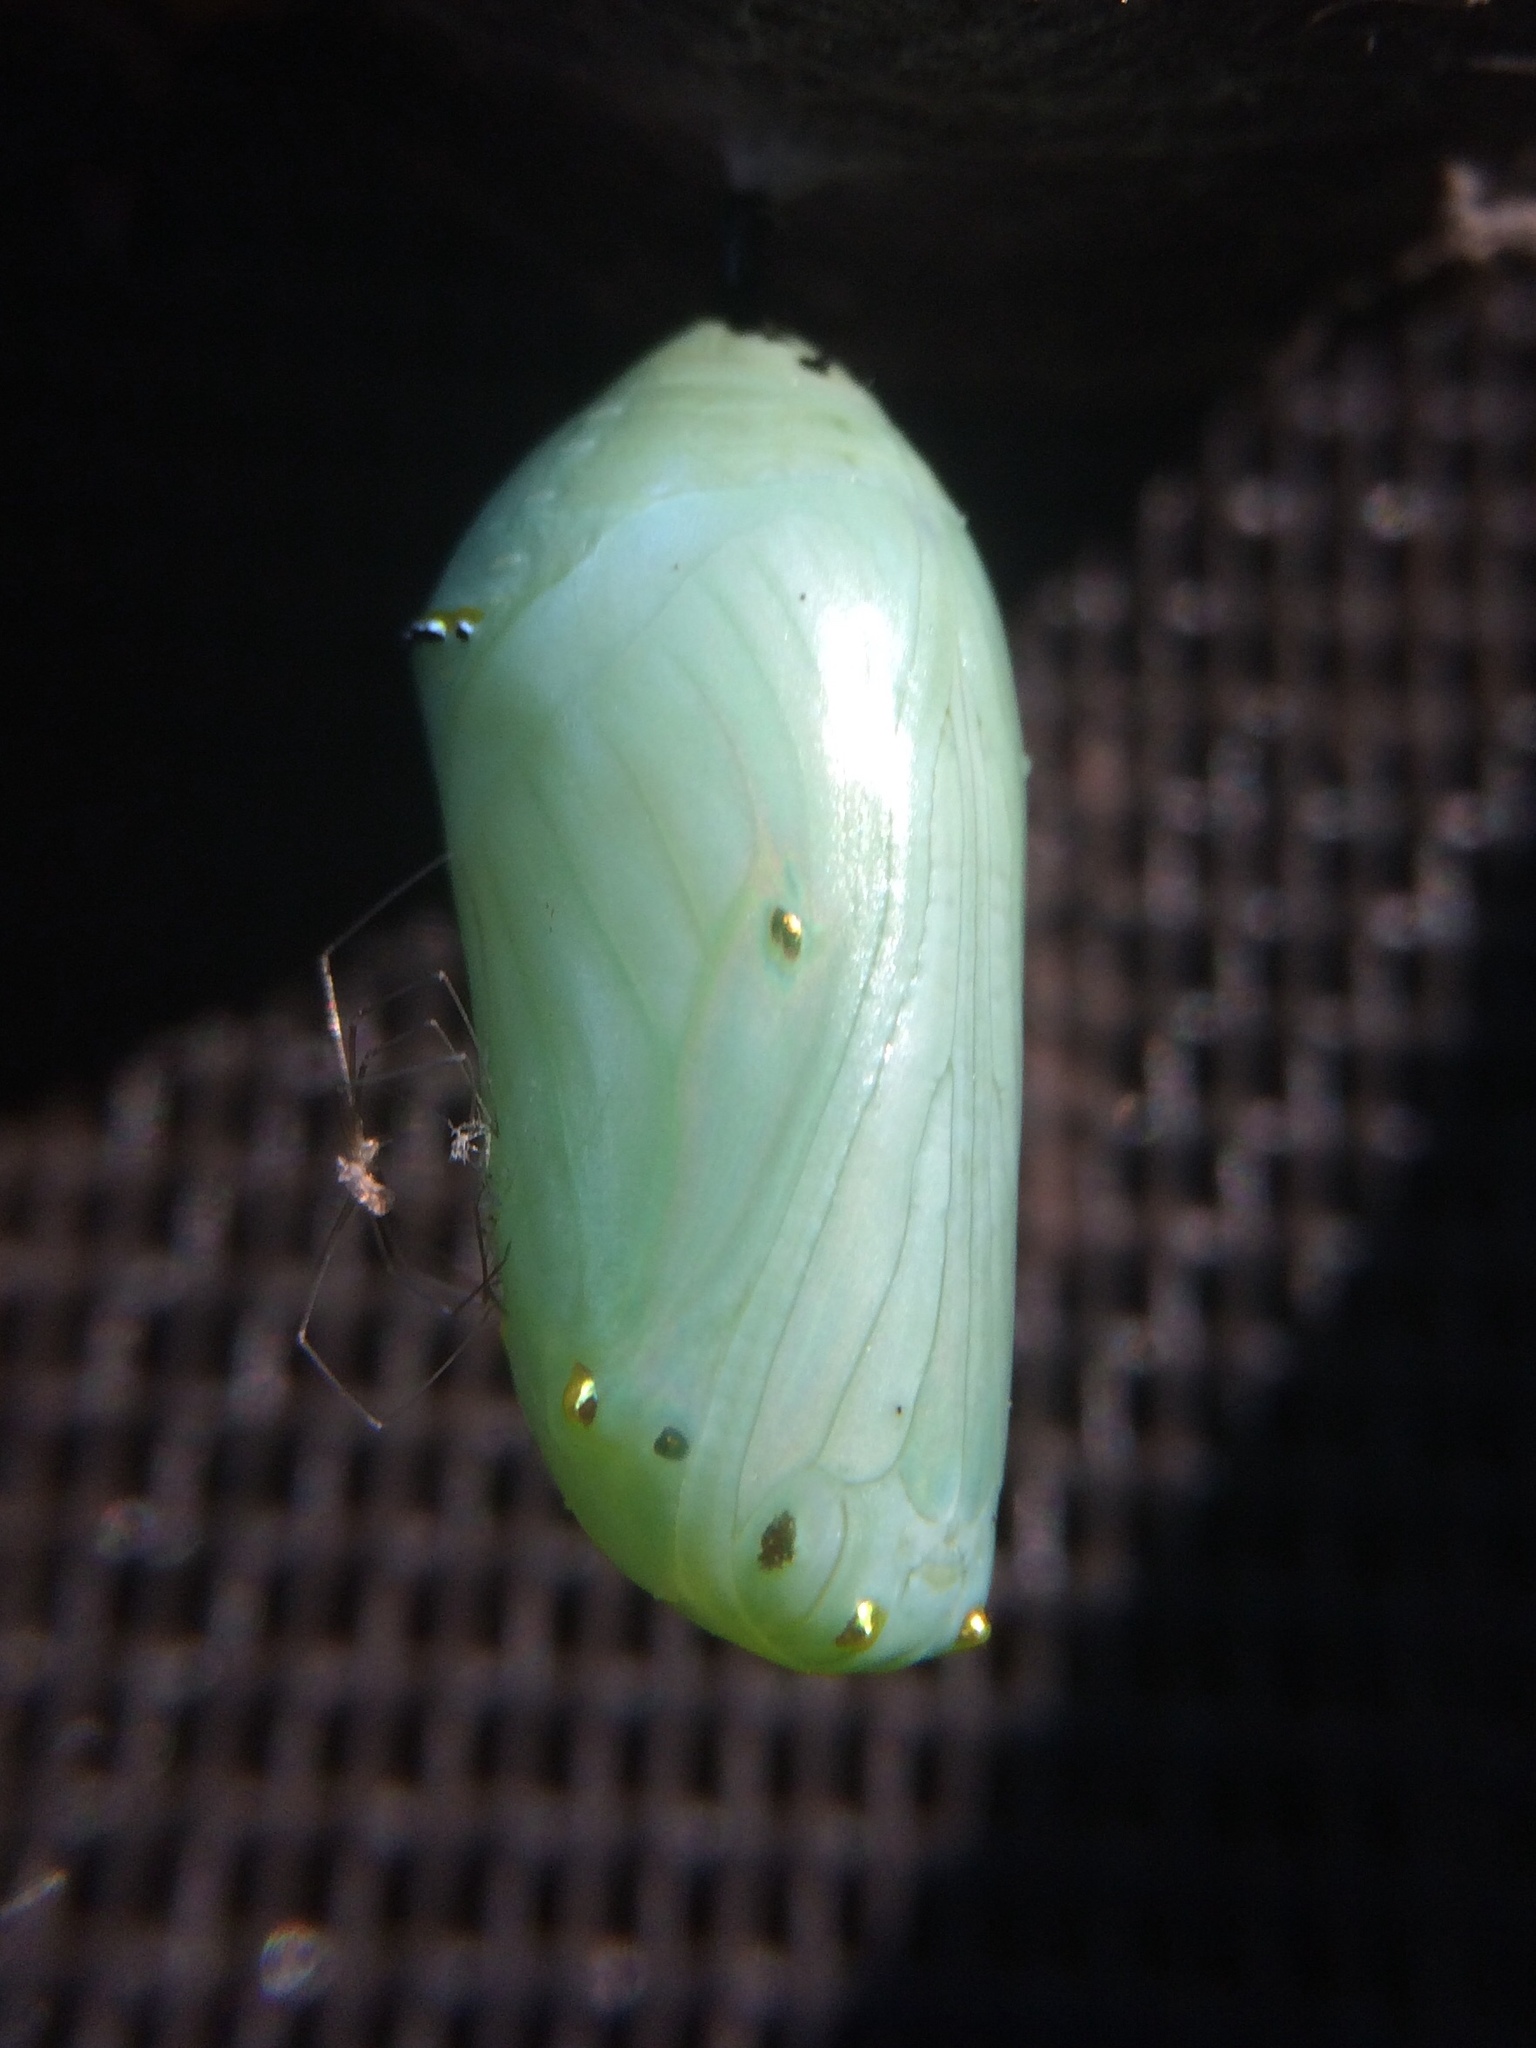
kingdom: Animalia
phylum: Arthropoda
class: Insecta
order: Lepidoptera
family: Nymphalidae
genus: Danaus
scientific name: Danaus plexippus
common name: Monarch
